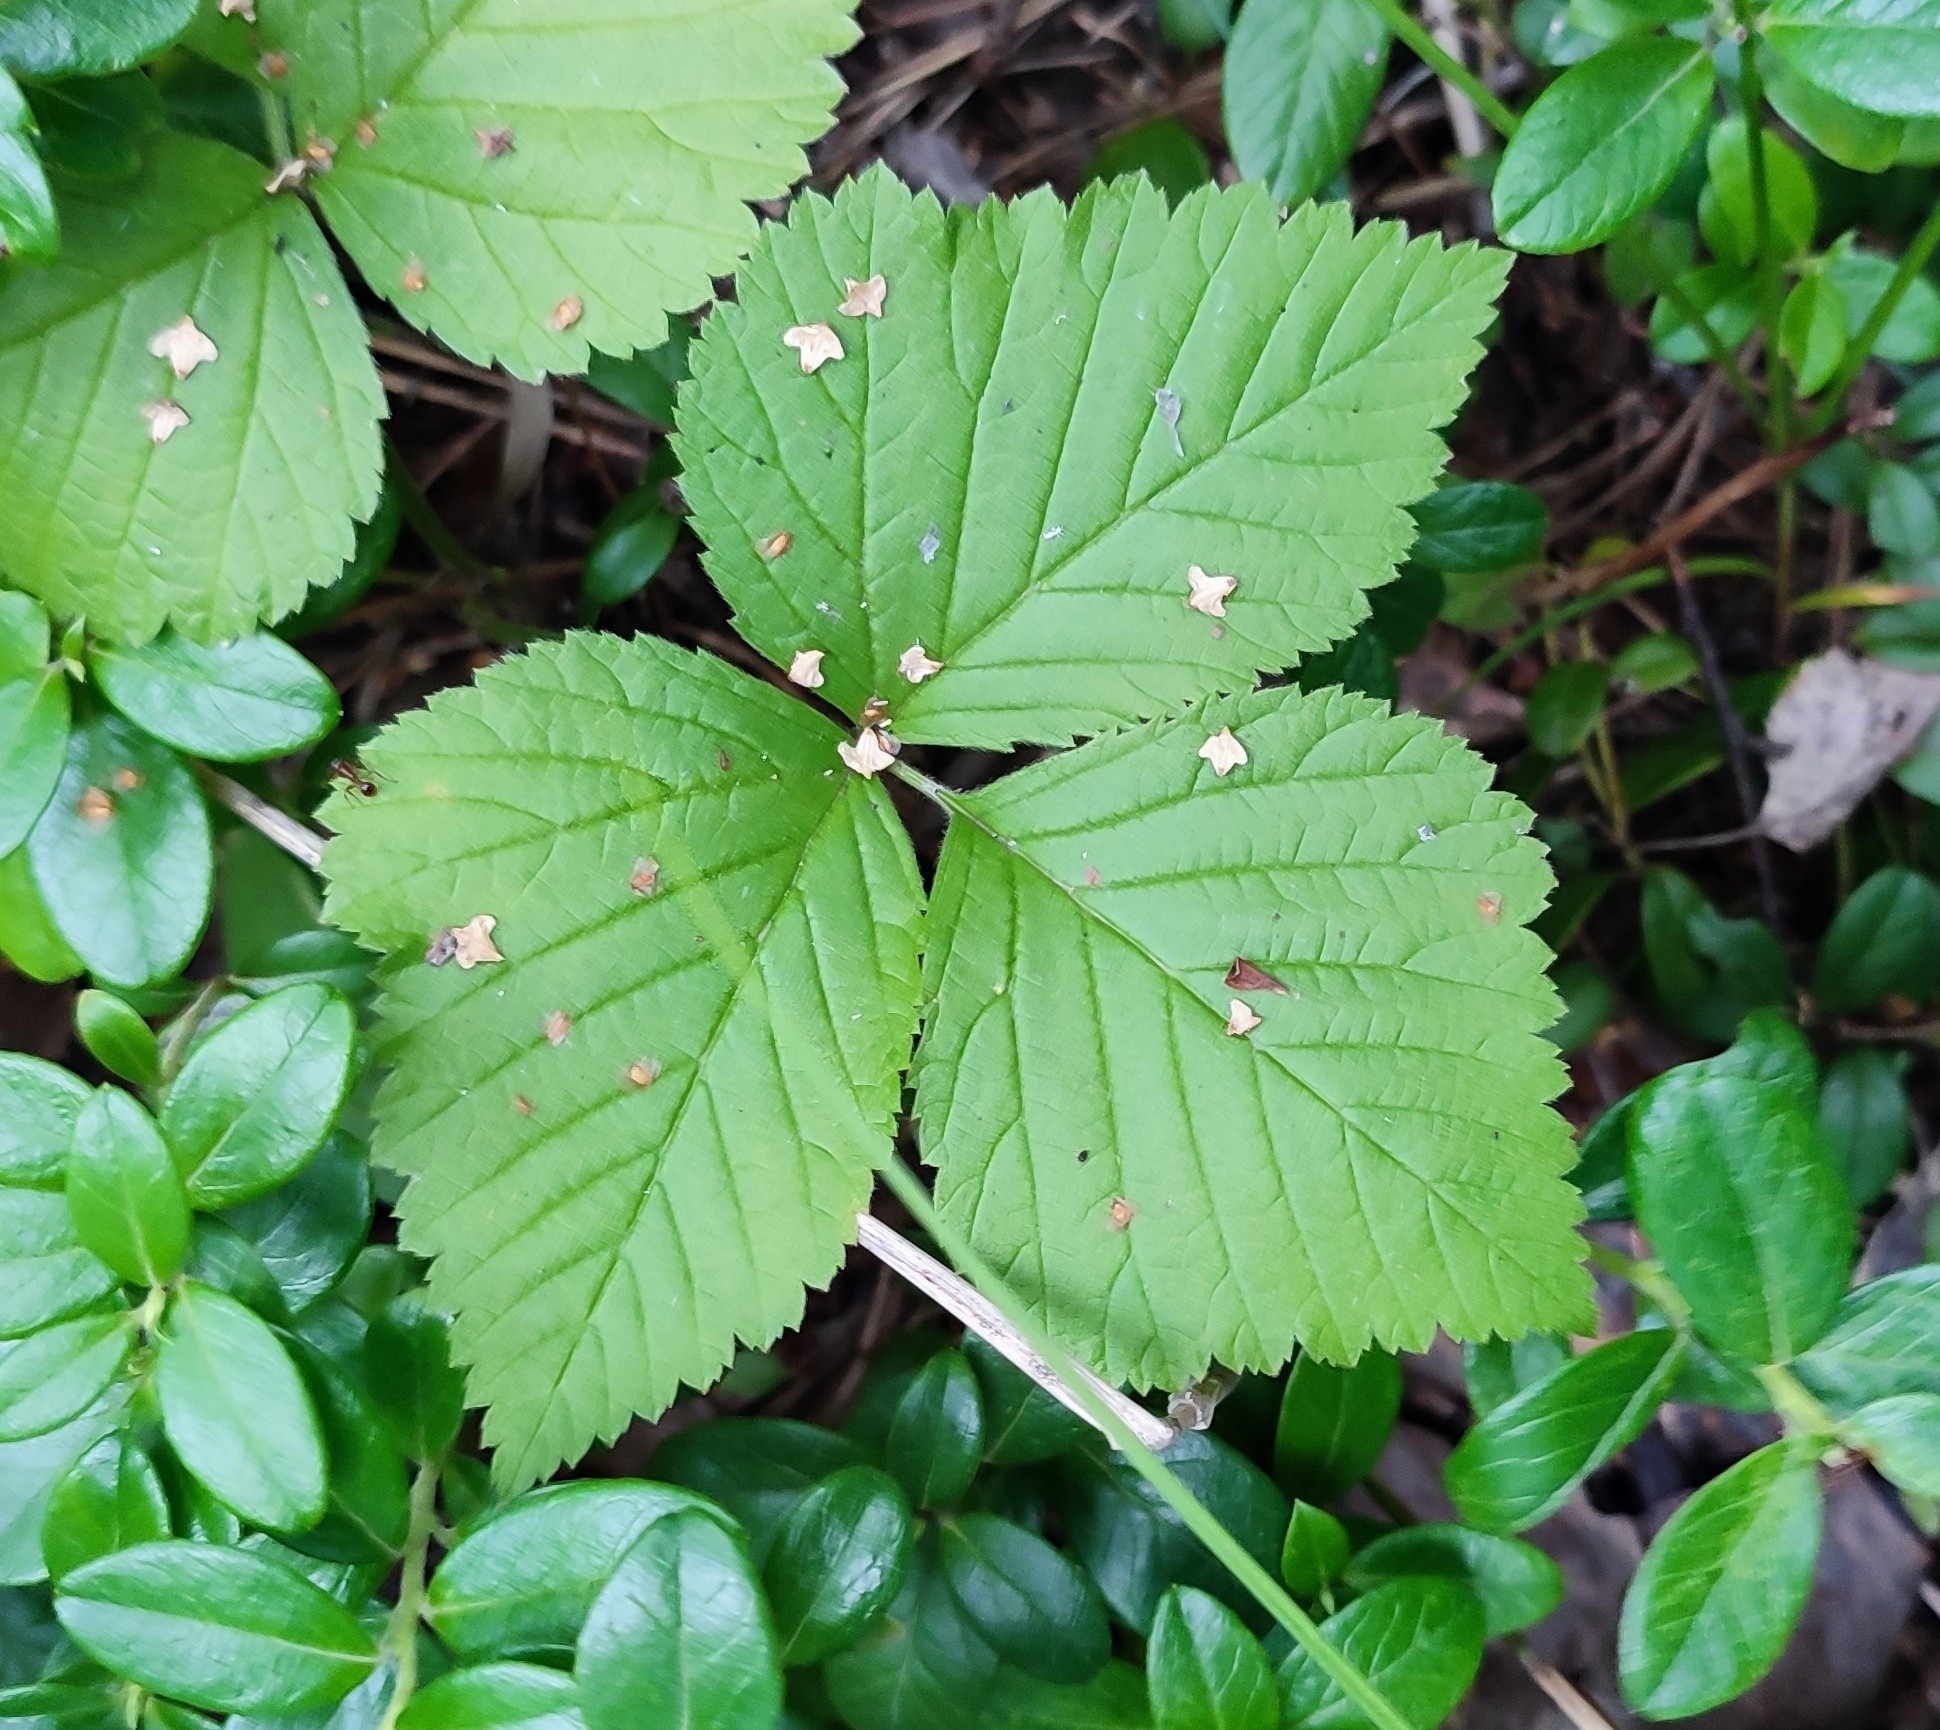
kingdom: Plantae
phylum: Tracheophyta
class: Magnoliopsida
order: Rosales
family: Rosaceae
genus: Rubus
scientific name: Rubus saxatilis
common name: Stone bramble
